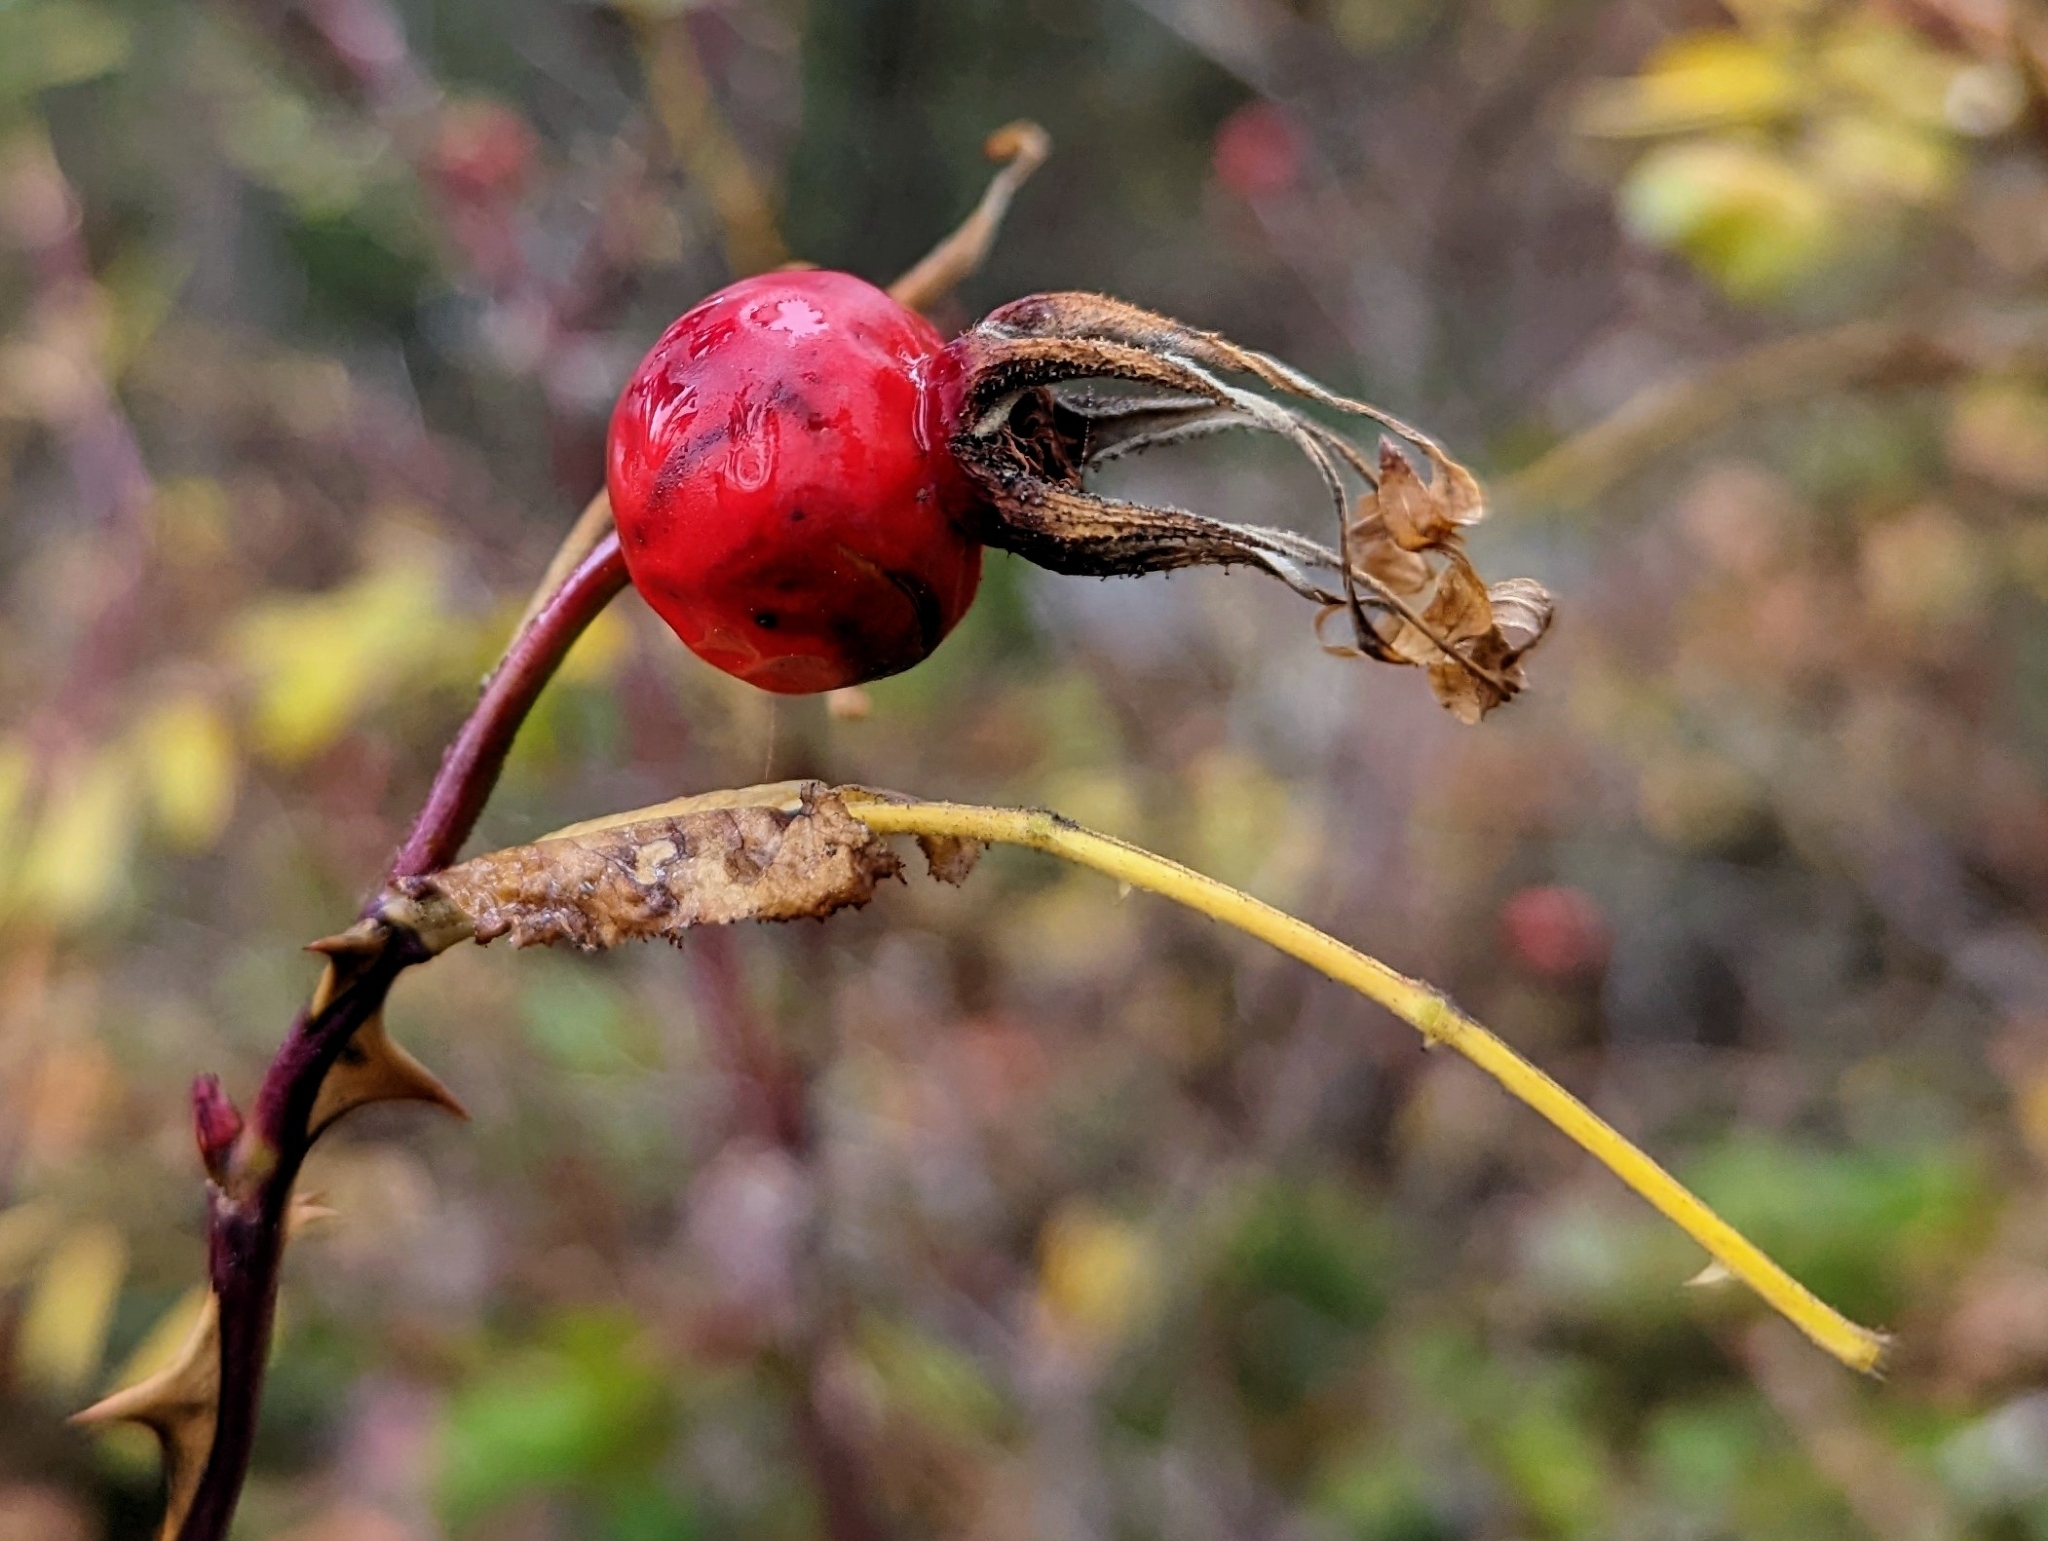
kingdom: Plantae
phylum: Tracheophyta
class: Magnoliopsida
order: Rosales
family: Rosaceae
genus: Rosa
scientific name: Rosa nutkana
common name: Nootka rose
